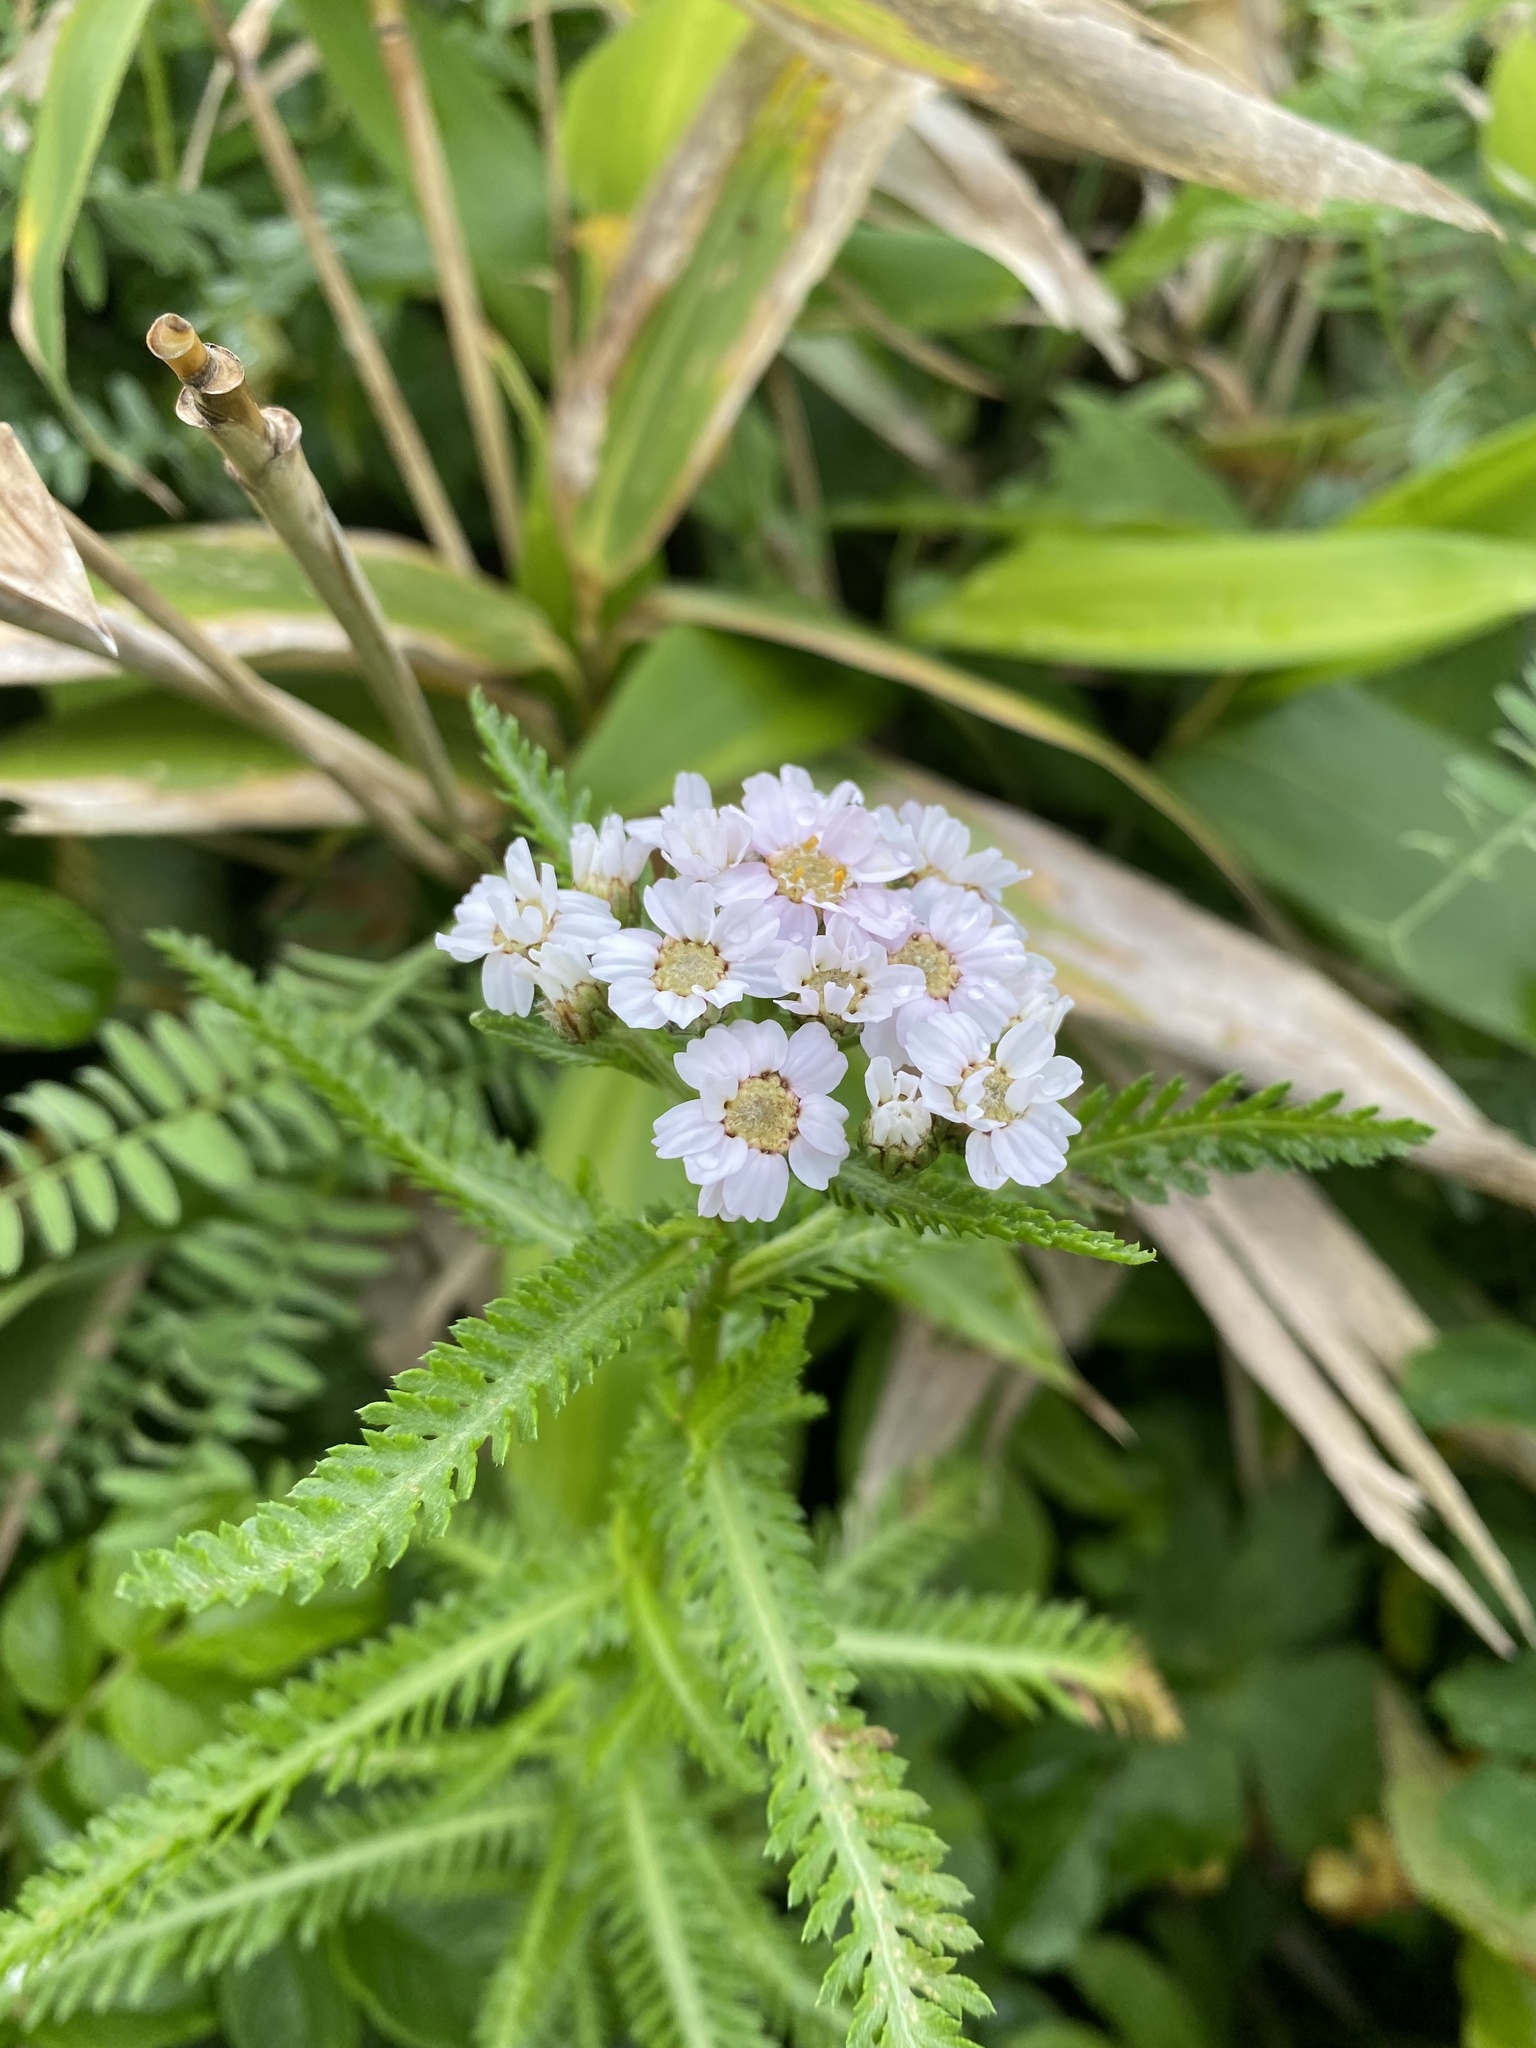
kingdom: Plantae
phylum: Tracheophyta
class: Magnoliopsida
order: Asterales
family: Asteraceae
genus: Achillea
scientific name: Achillea alpina
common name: Siberian yarrow
